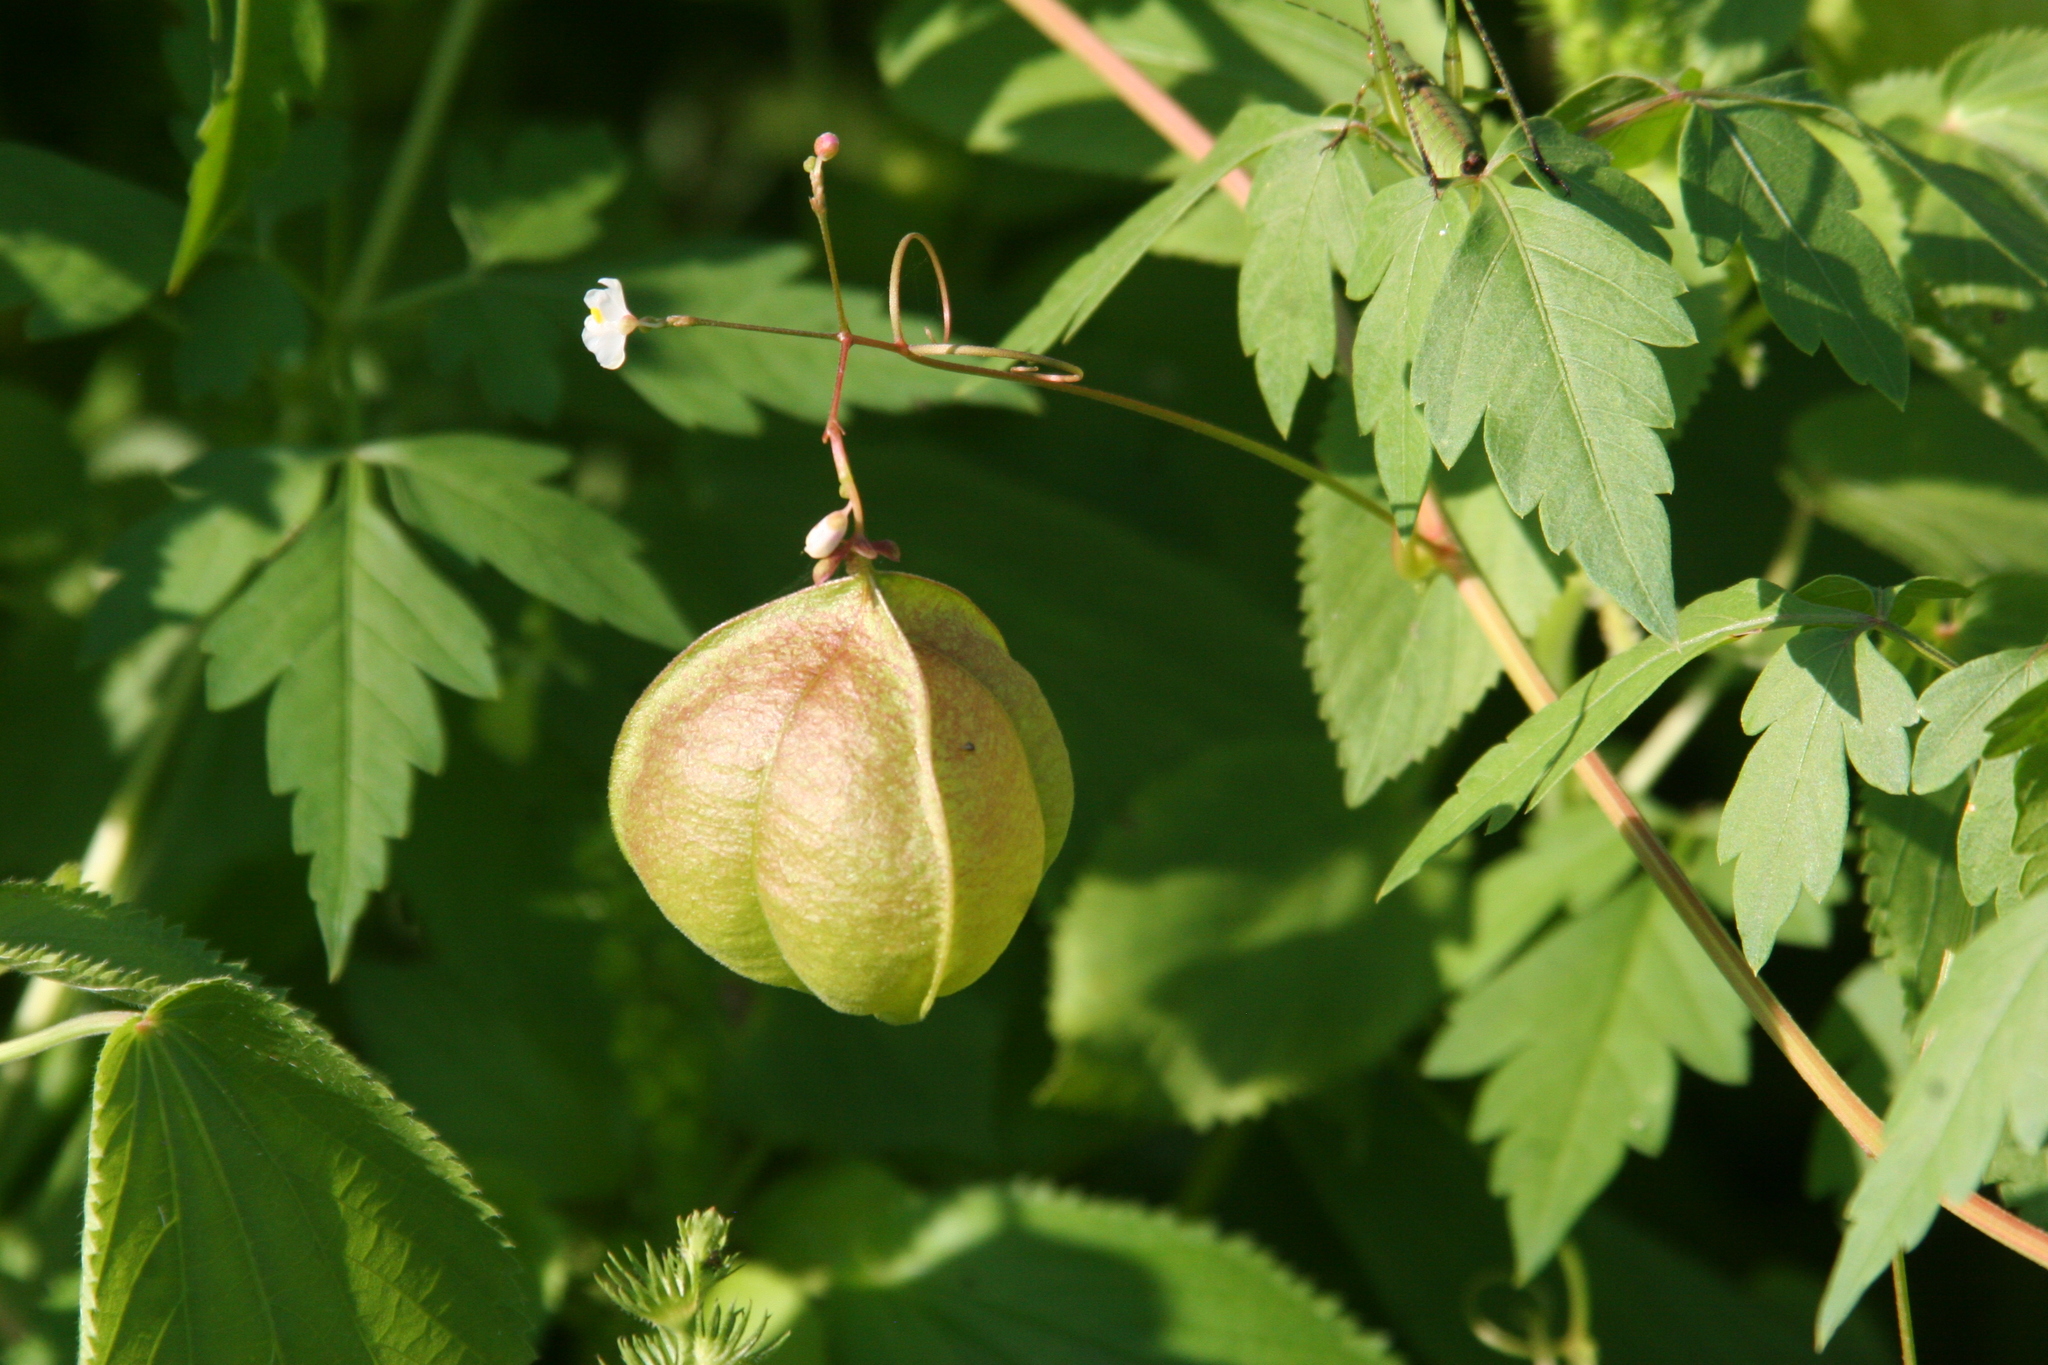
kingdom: Plantae
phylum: Tracheophyta
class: Magnoliopsida
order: Sapindales
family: Sapindaceae
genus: Cardiospermum
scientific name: Cardiospermum halicacabum
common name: Balloon vine
